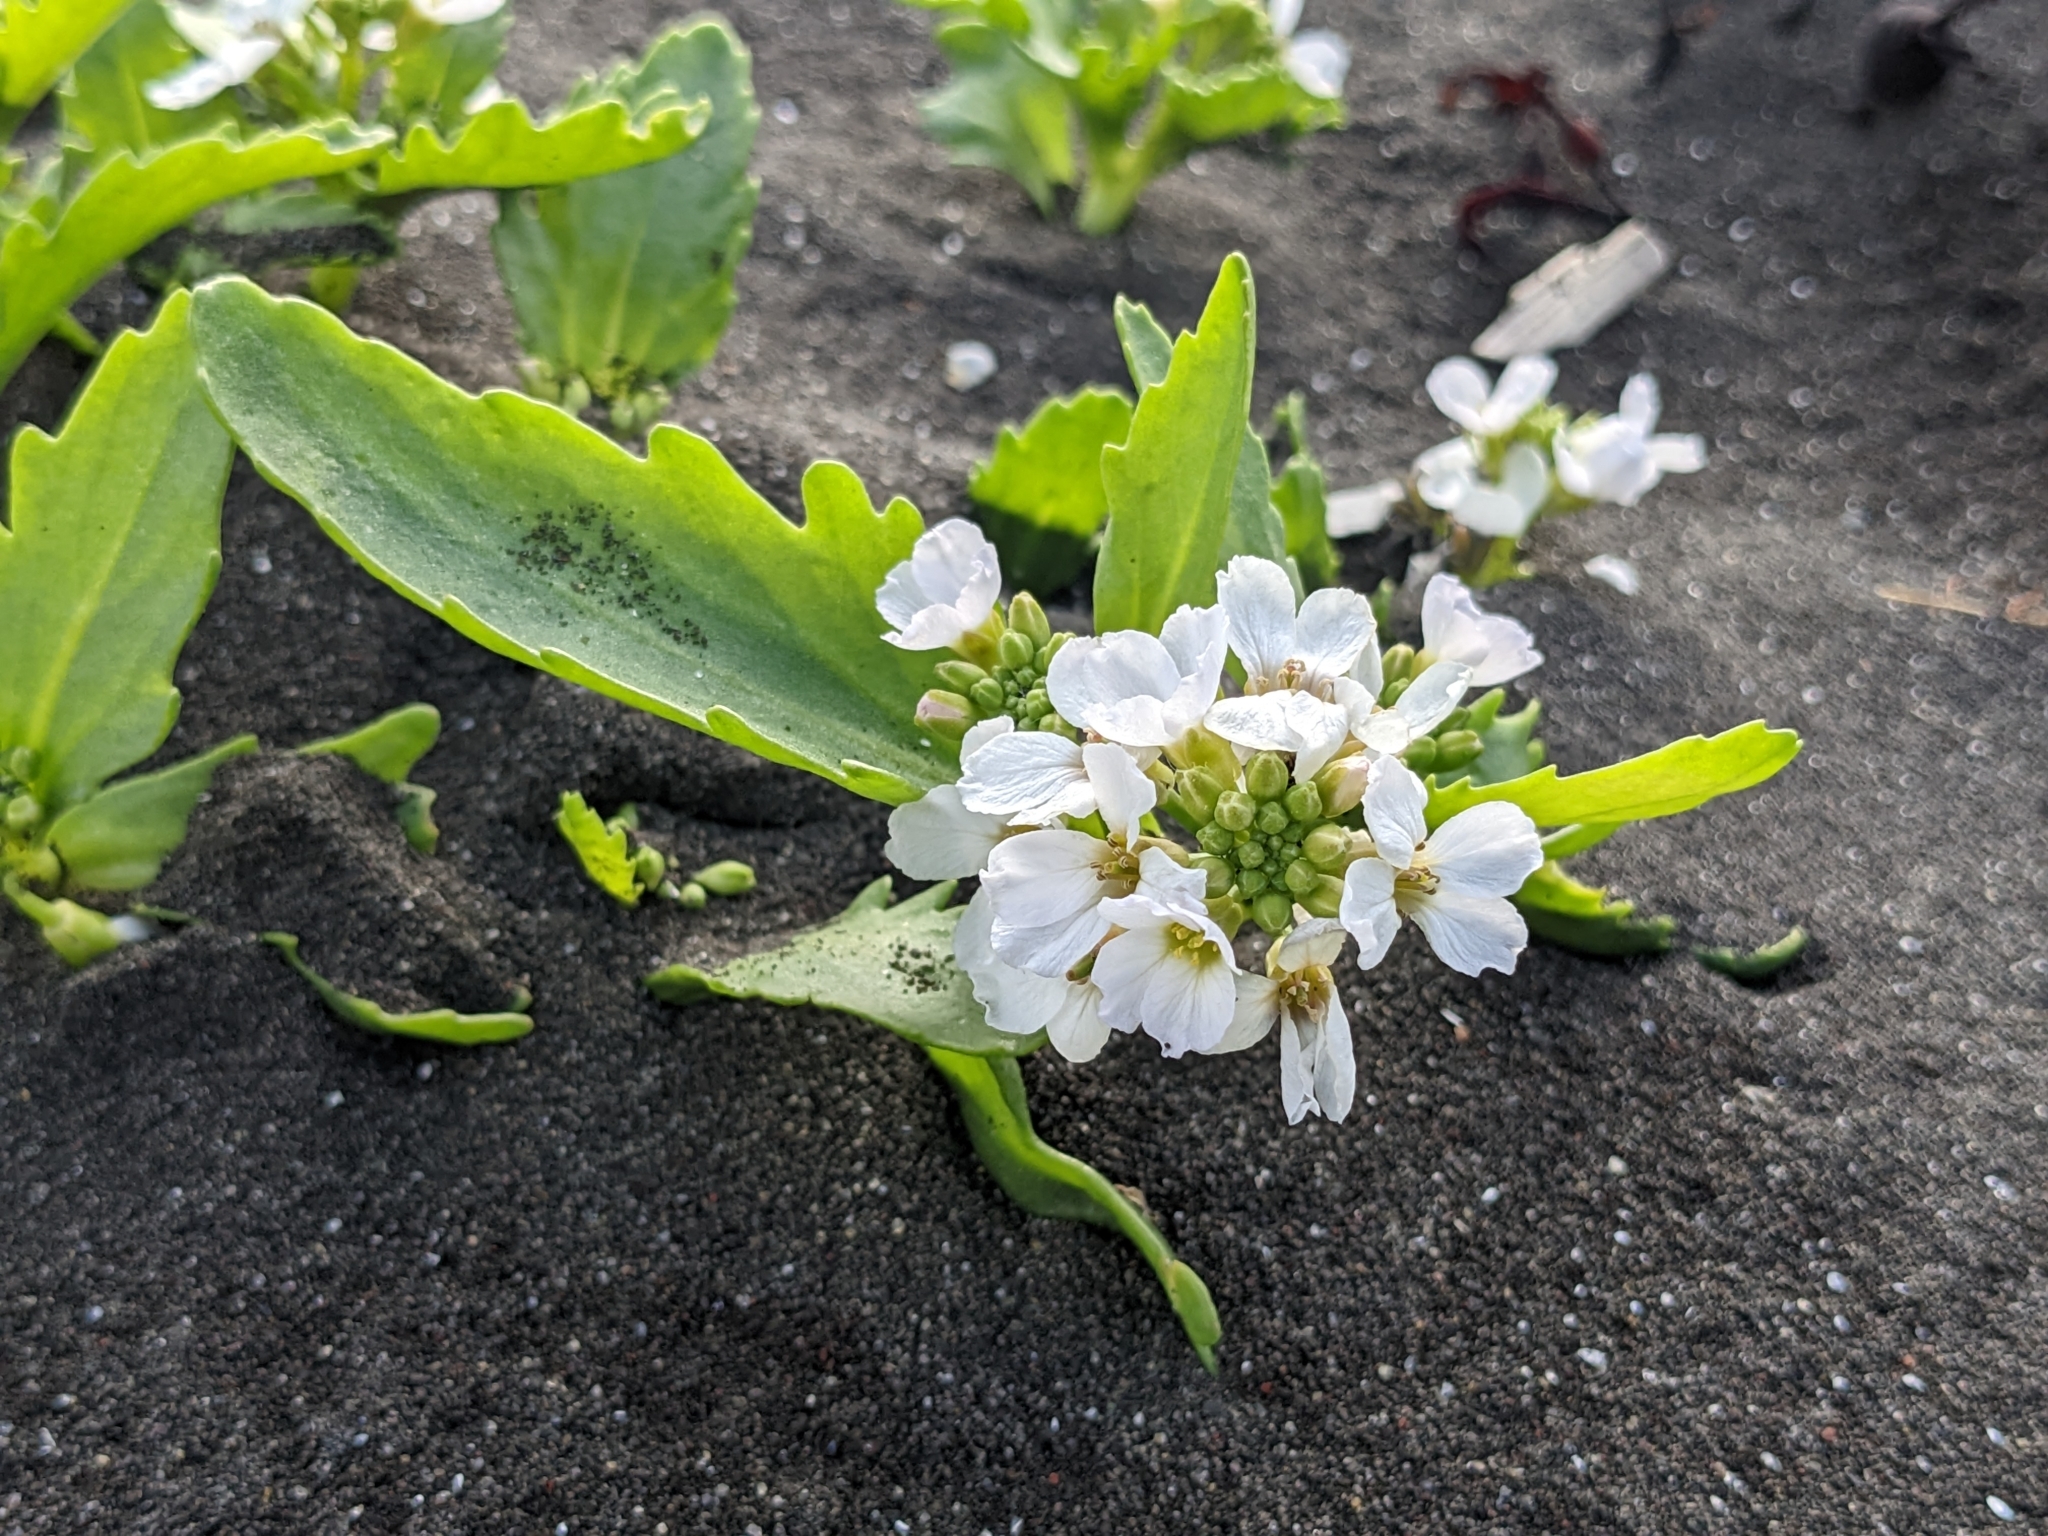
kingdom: Plantae
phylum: Tracheophyta
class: Magnoliopsida
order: Brassicales
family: Brassicaceae
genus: Cakile
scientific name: Cakile arctica
